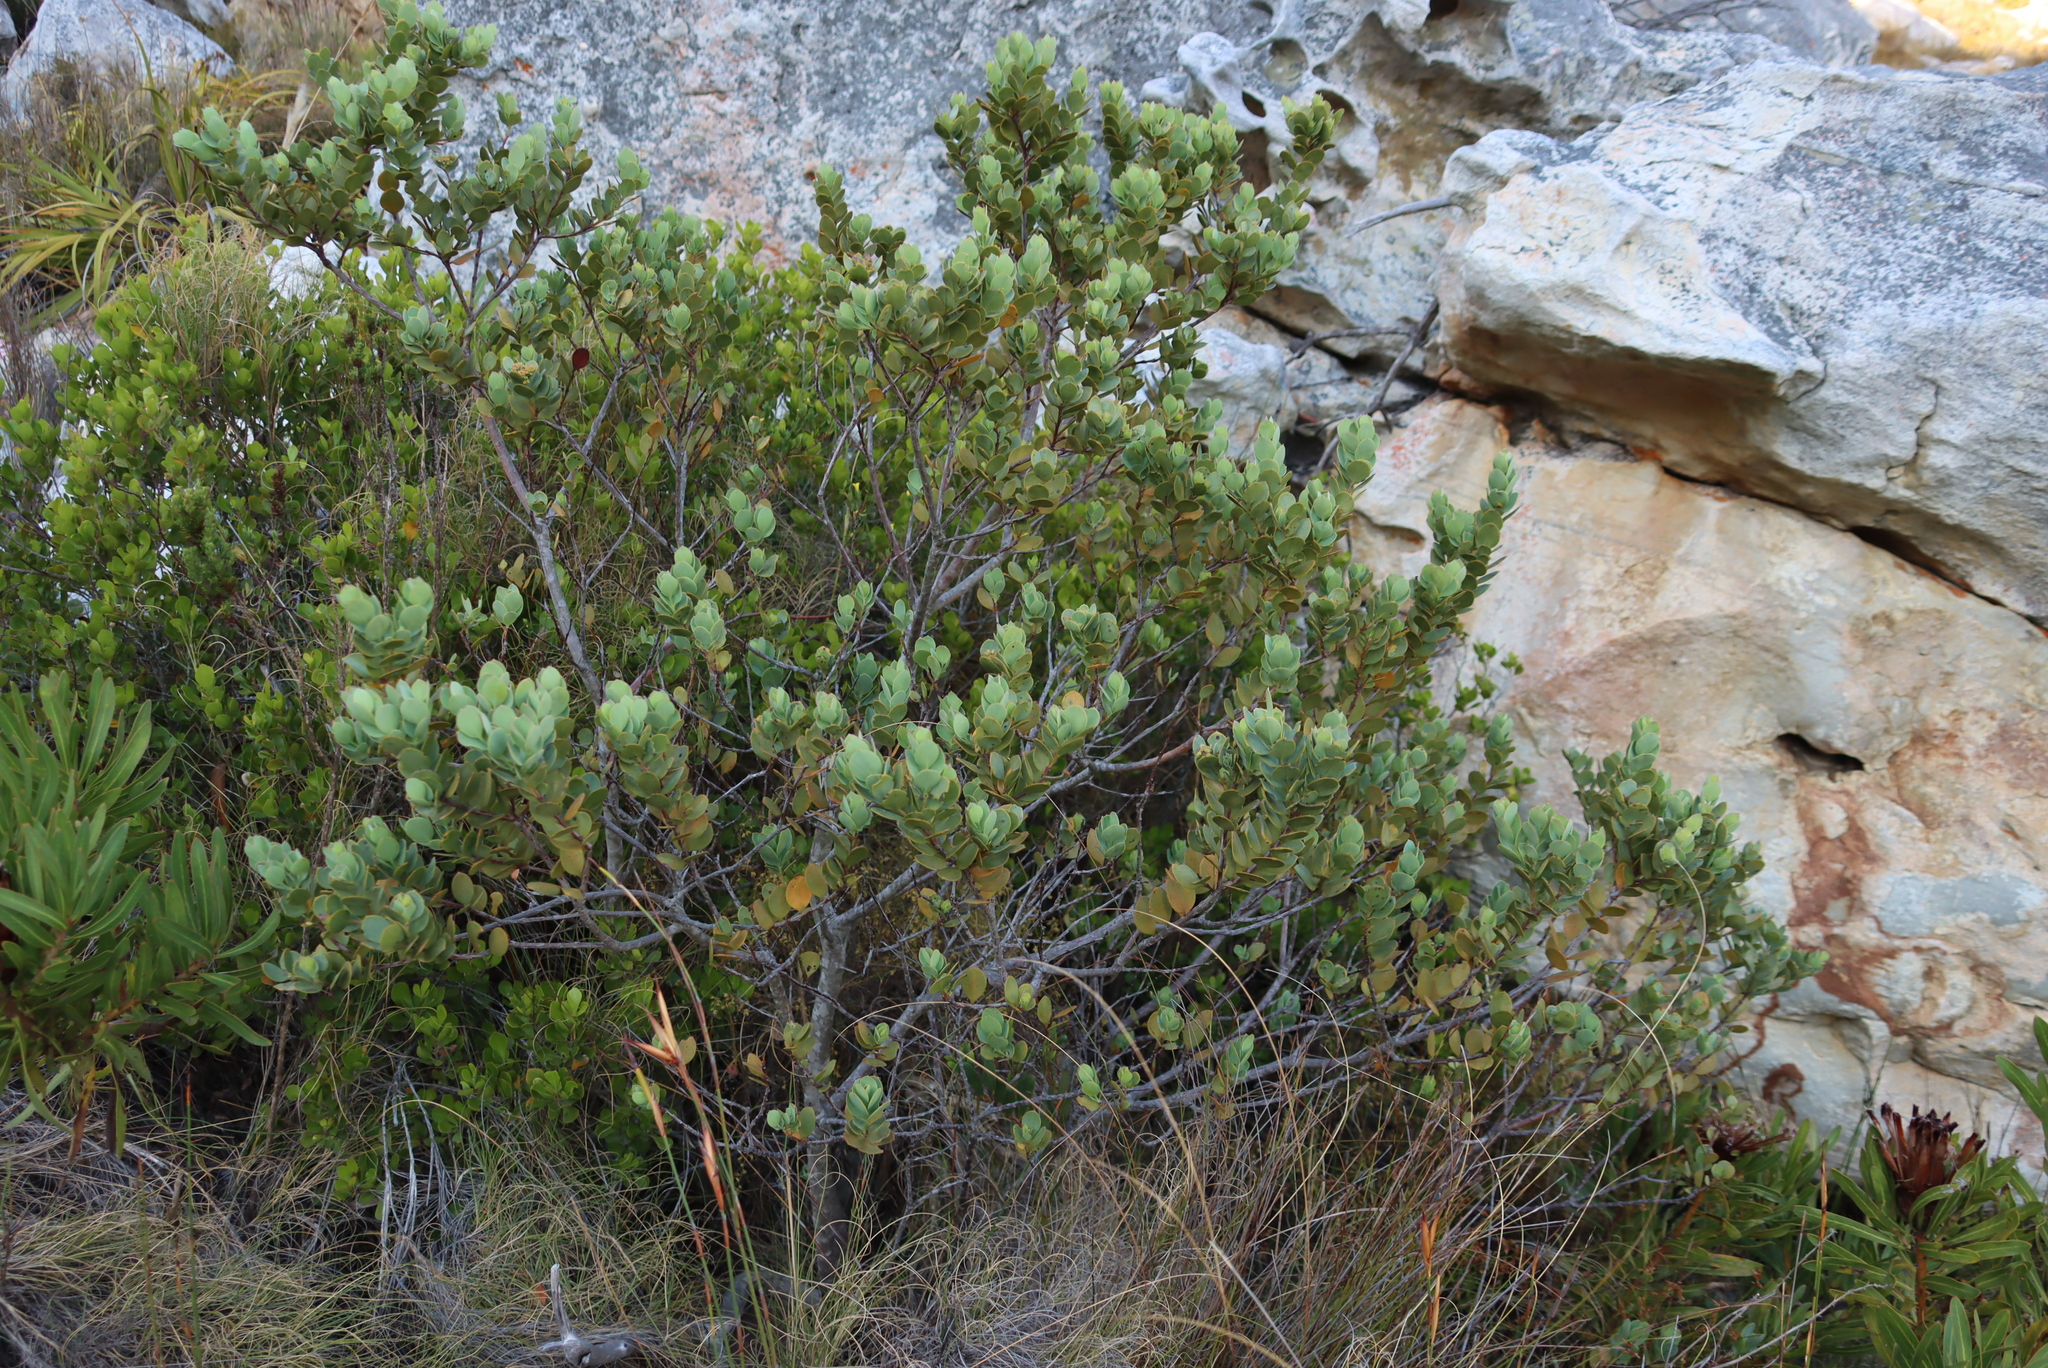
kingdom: Plantae
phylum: Tracheophyta
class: Magnoliopsida
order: Santalales
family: Santalaceae
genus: Osyris
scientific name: Osyris compressa
